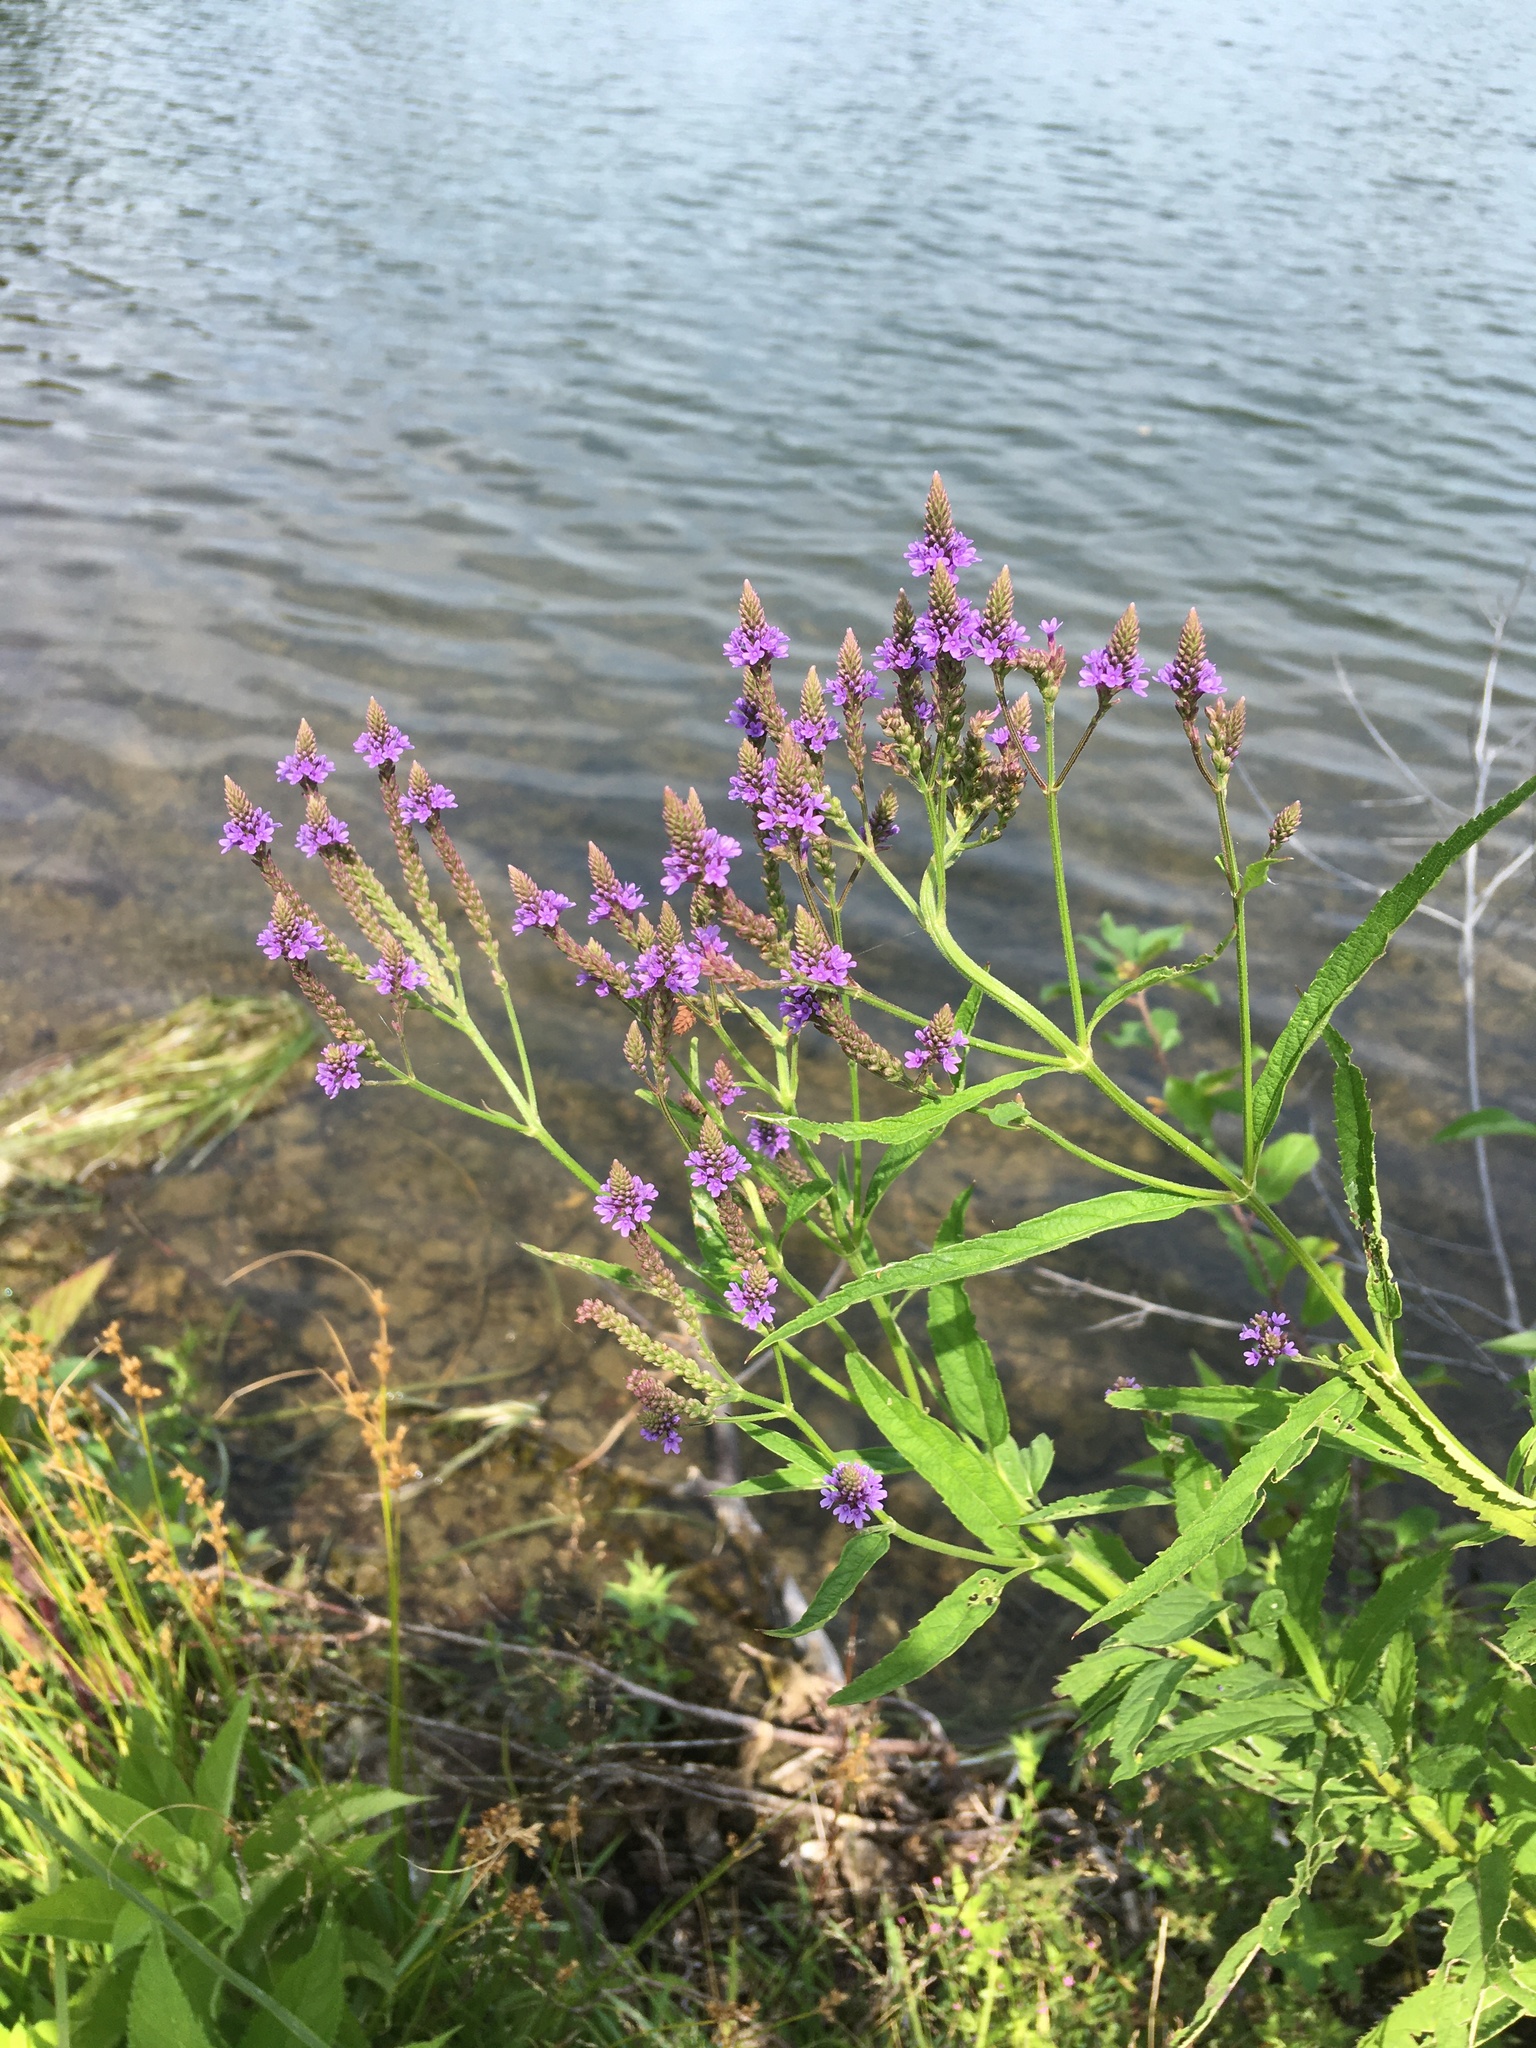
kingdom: Plantae
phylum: Tracheophyta
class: Magnoliopsida
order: Lamiales
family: Verbenaceae
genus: Verbena
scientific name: Verbena hastata
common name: American blue vervain
